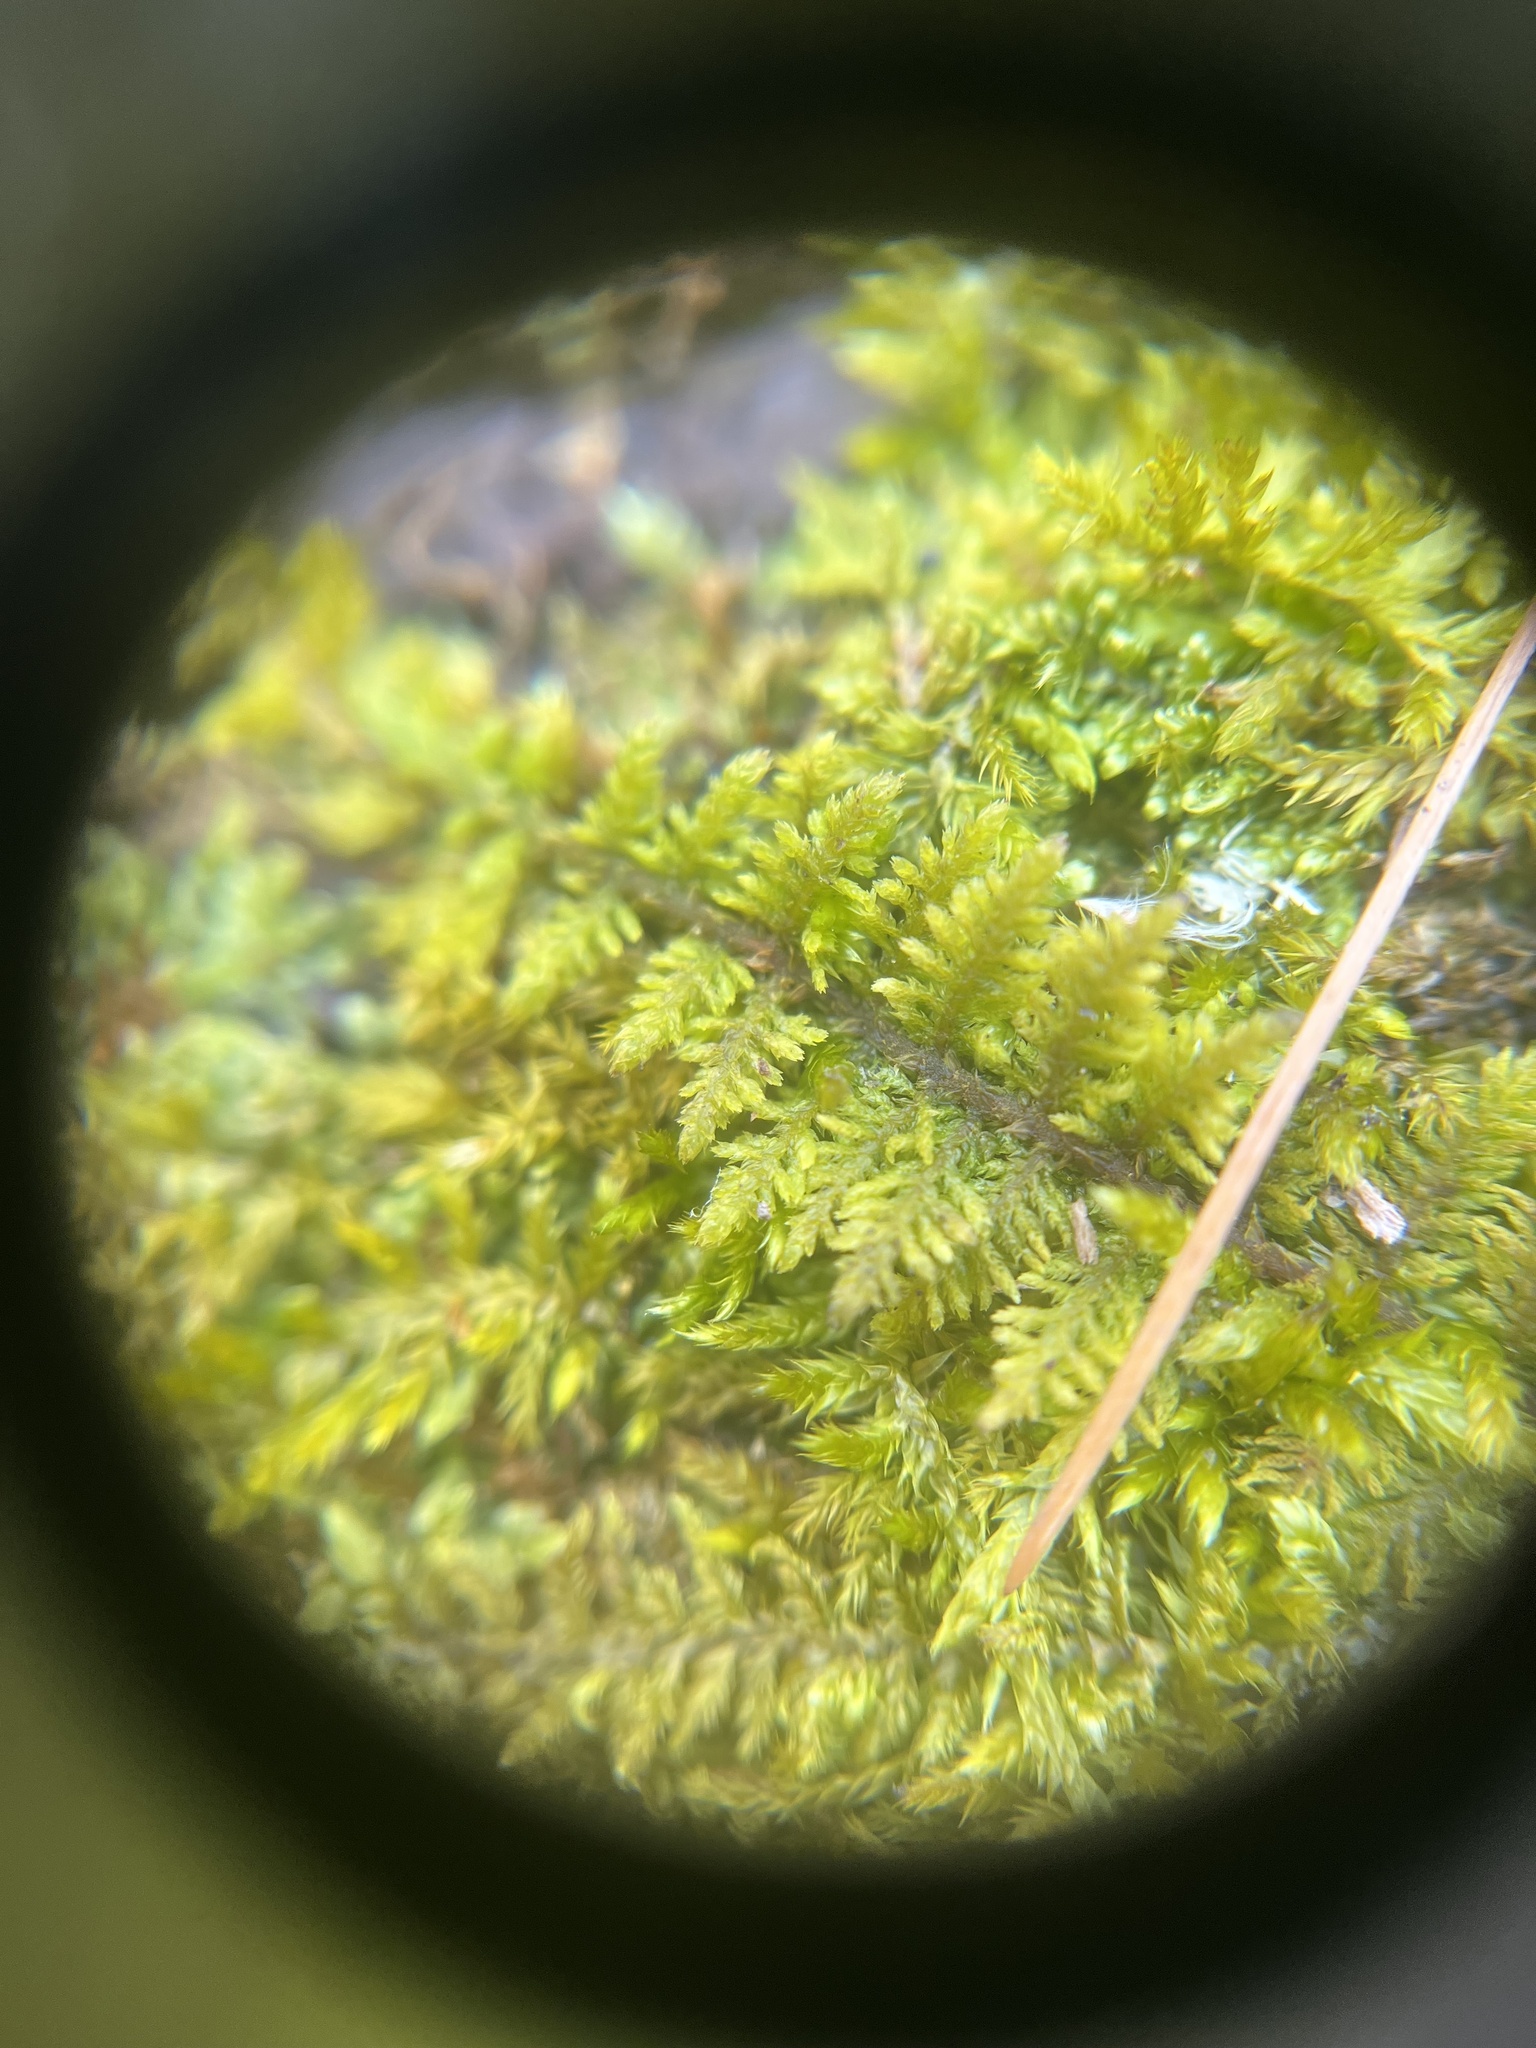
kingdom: Plantae
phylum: Bryophyta
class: Bryopsida
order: Hypnales
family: Thuidiaceae
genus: Thuidium
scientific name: Thuidium delicatulum
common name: Delicate fern moss
